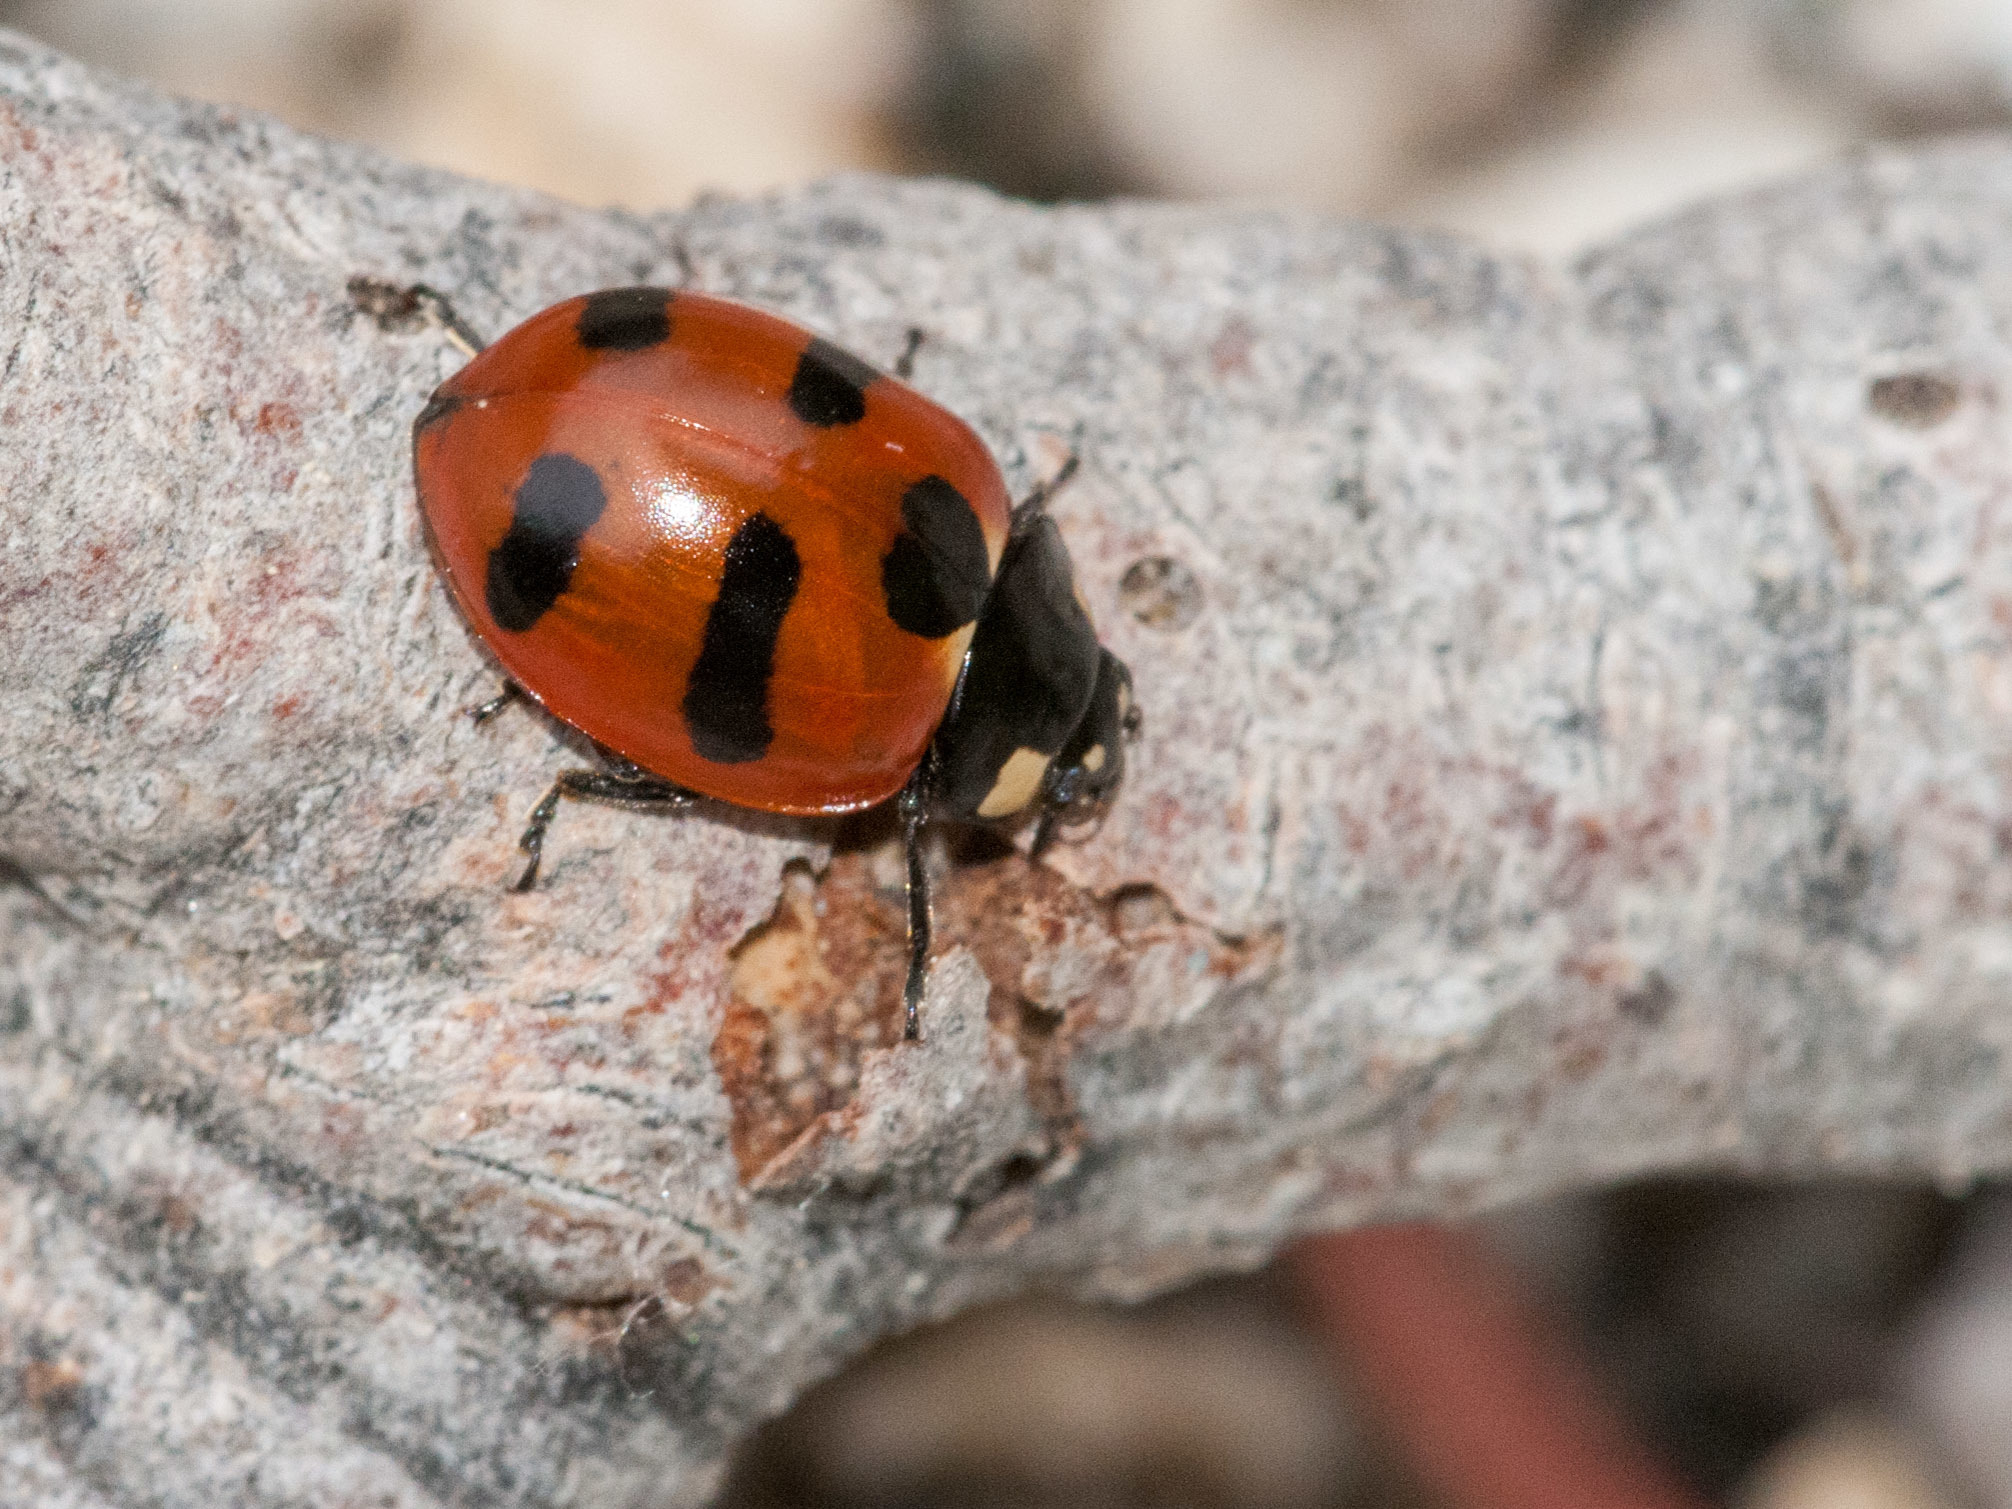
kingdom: Animalia
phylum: Arthropoda
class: Insecta
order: Coleoptera
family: Coccinellidae
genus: Coccinella
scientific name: Coccinella monticola
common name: Mountain lady beetle
